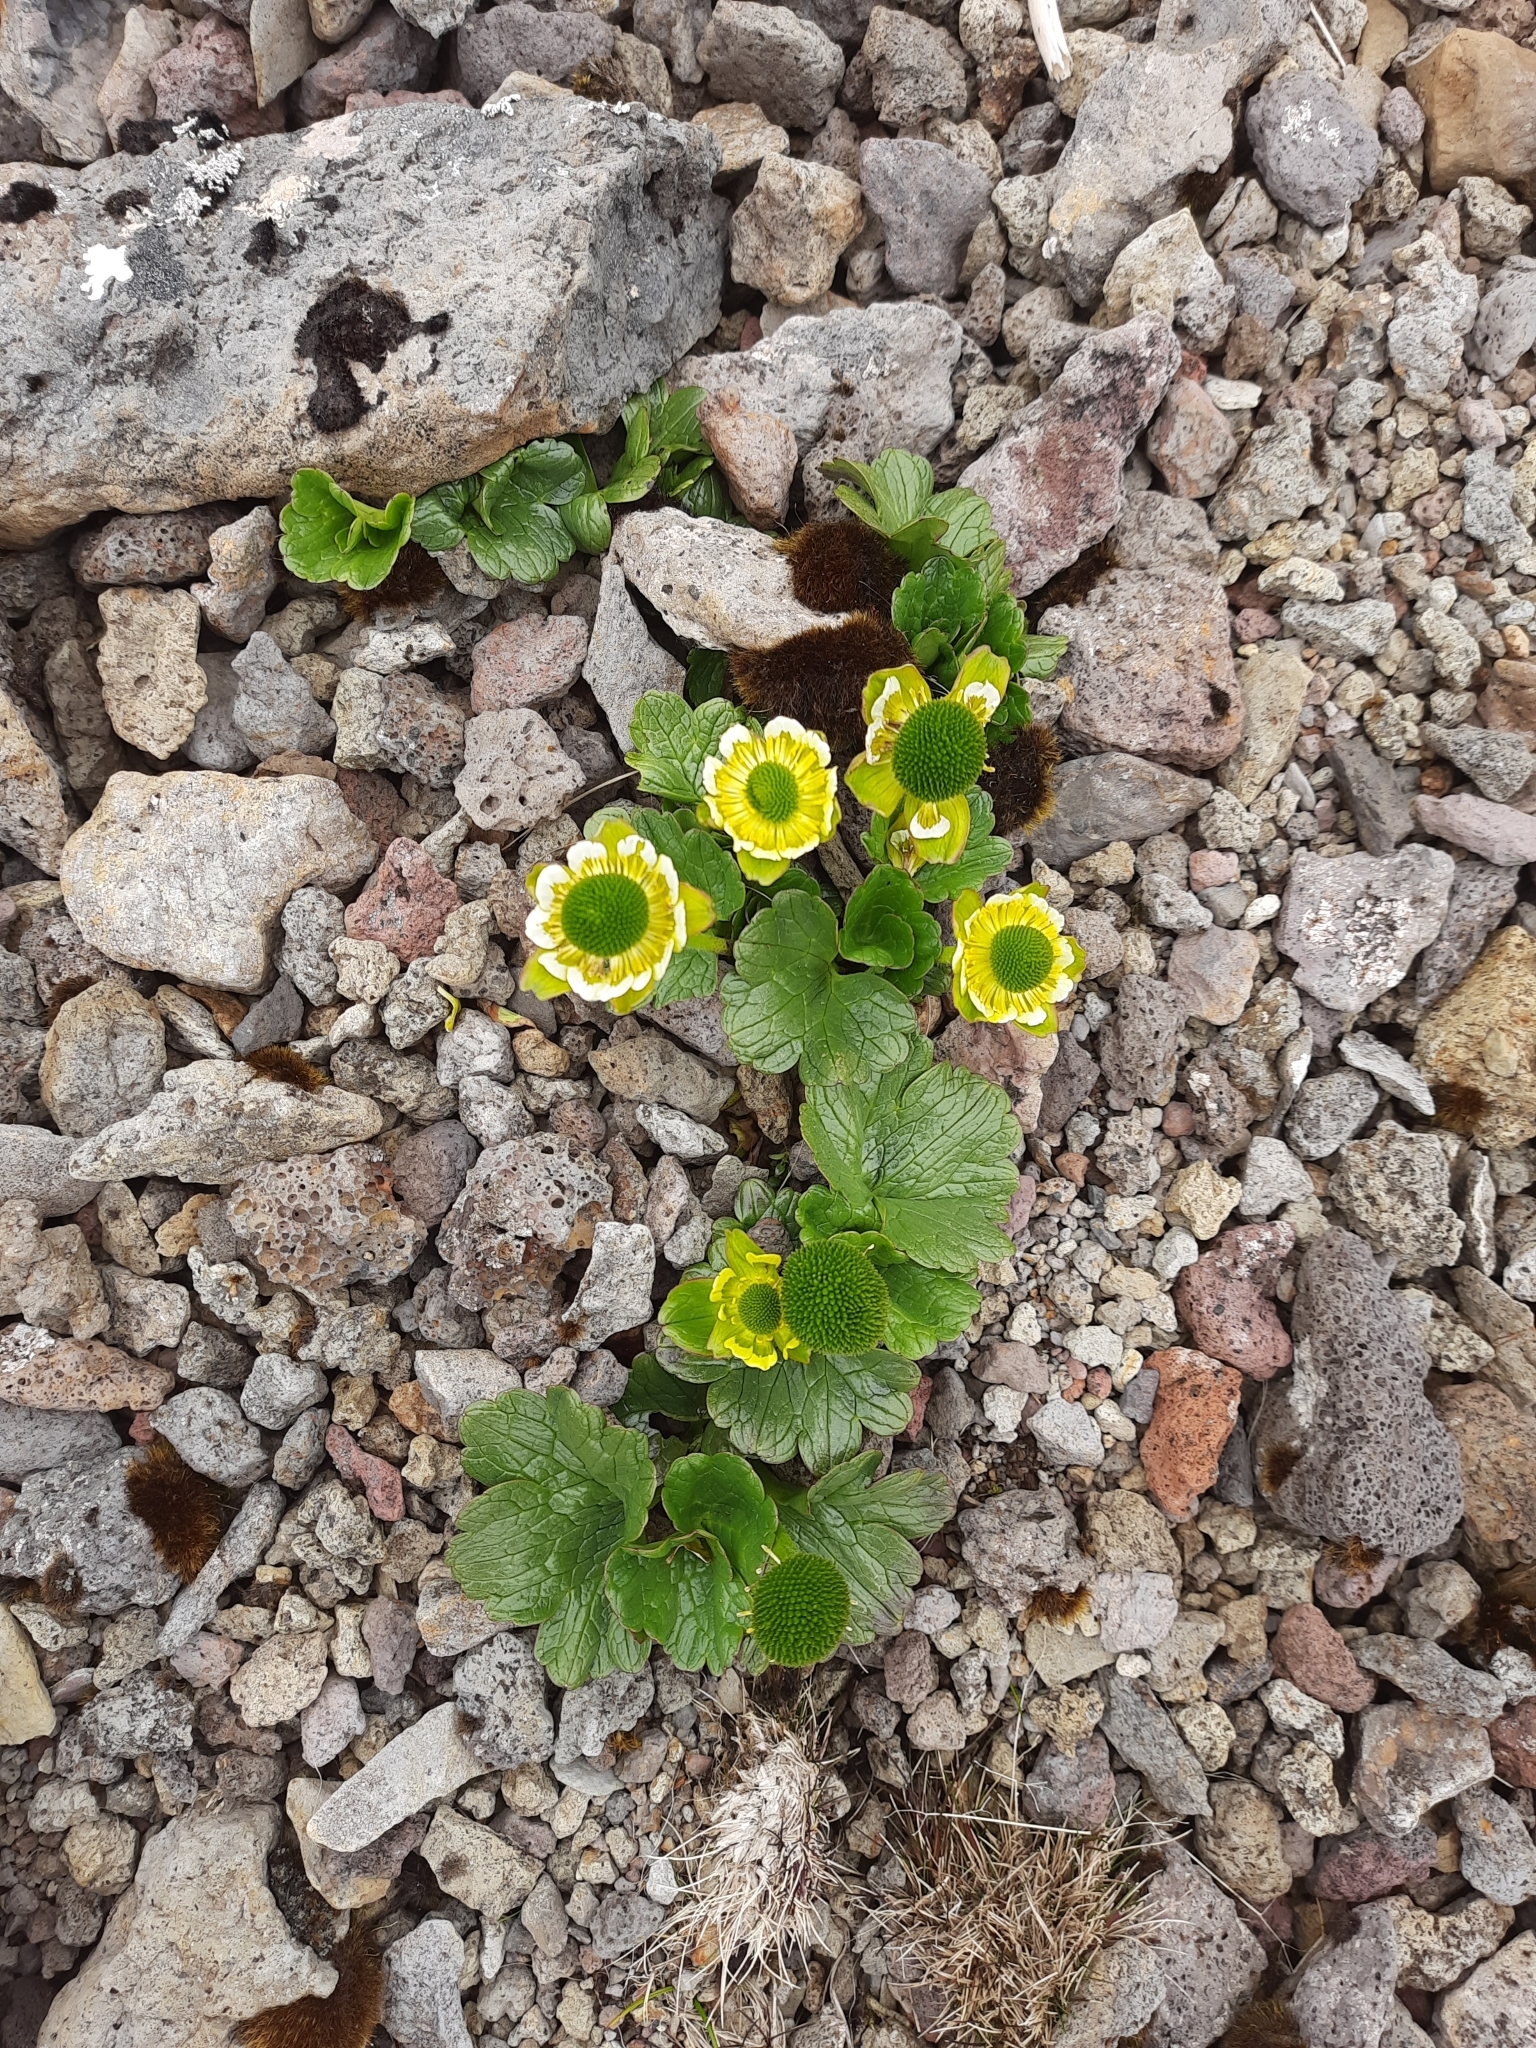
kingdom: Plantae
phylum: Tracheophyta
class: Magnoliopsida
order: Ranunculales
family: Ranunculaceae
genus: Ranunculus
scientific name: Ranunculus pinguis
